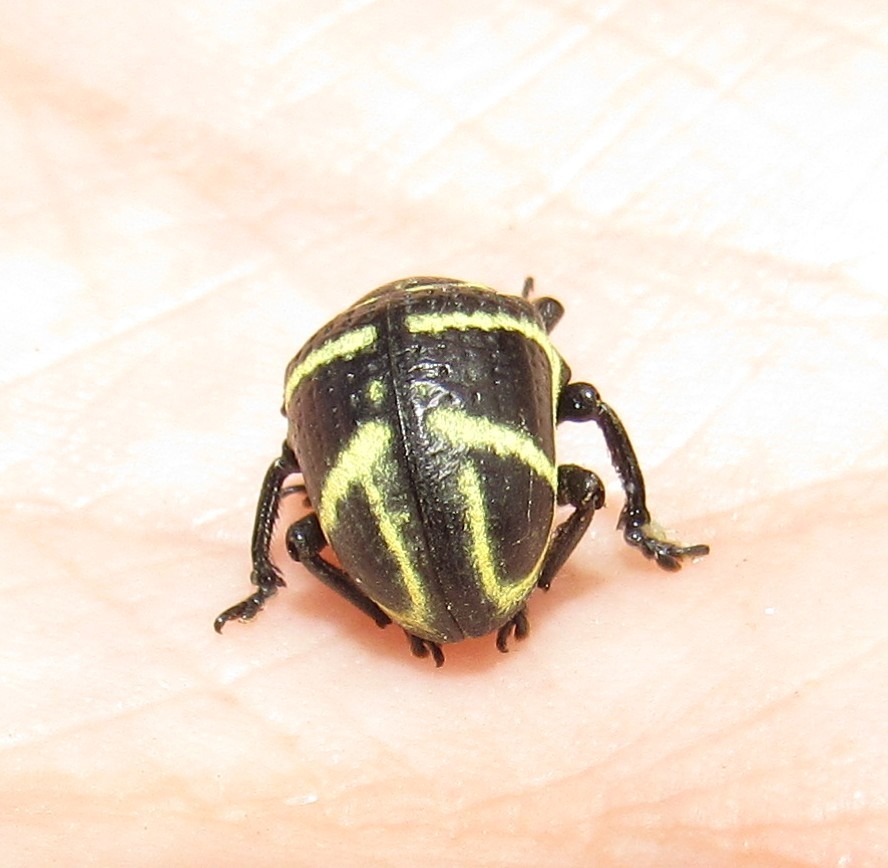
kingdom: Animalia
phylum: Arthropoda
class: Insecta
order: Coleoptera
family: Curculionidae
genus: Sternechus
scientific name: Sternechus subsignatus
